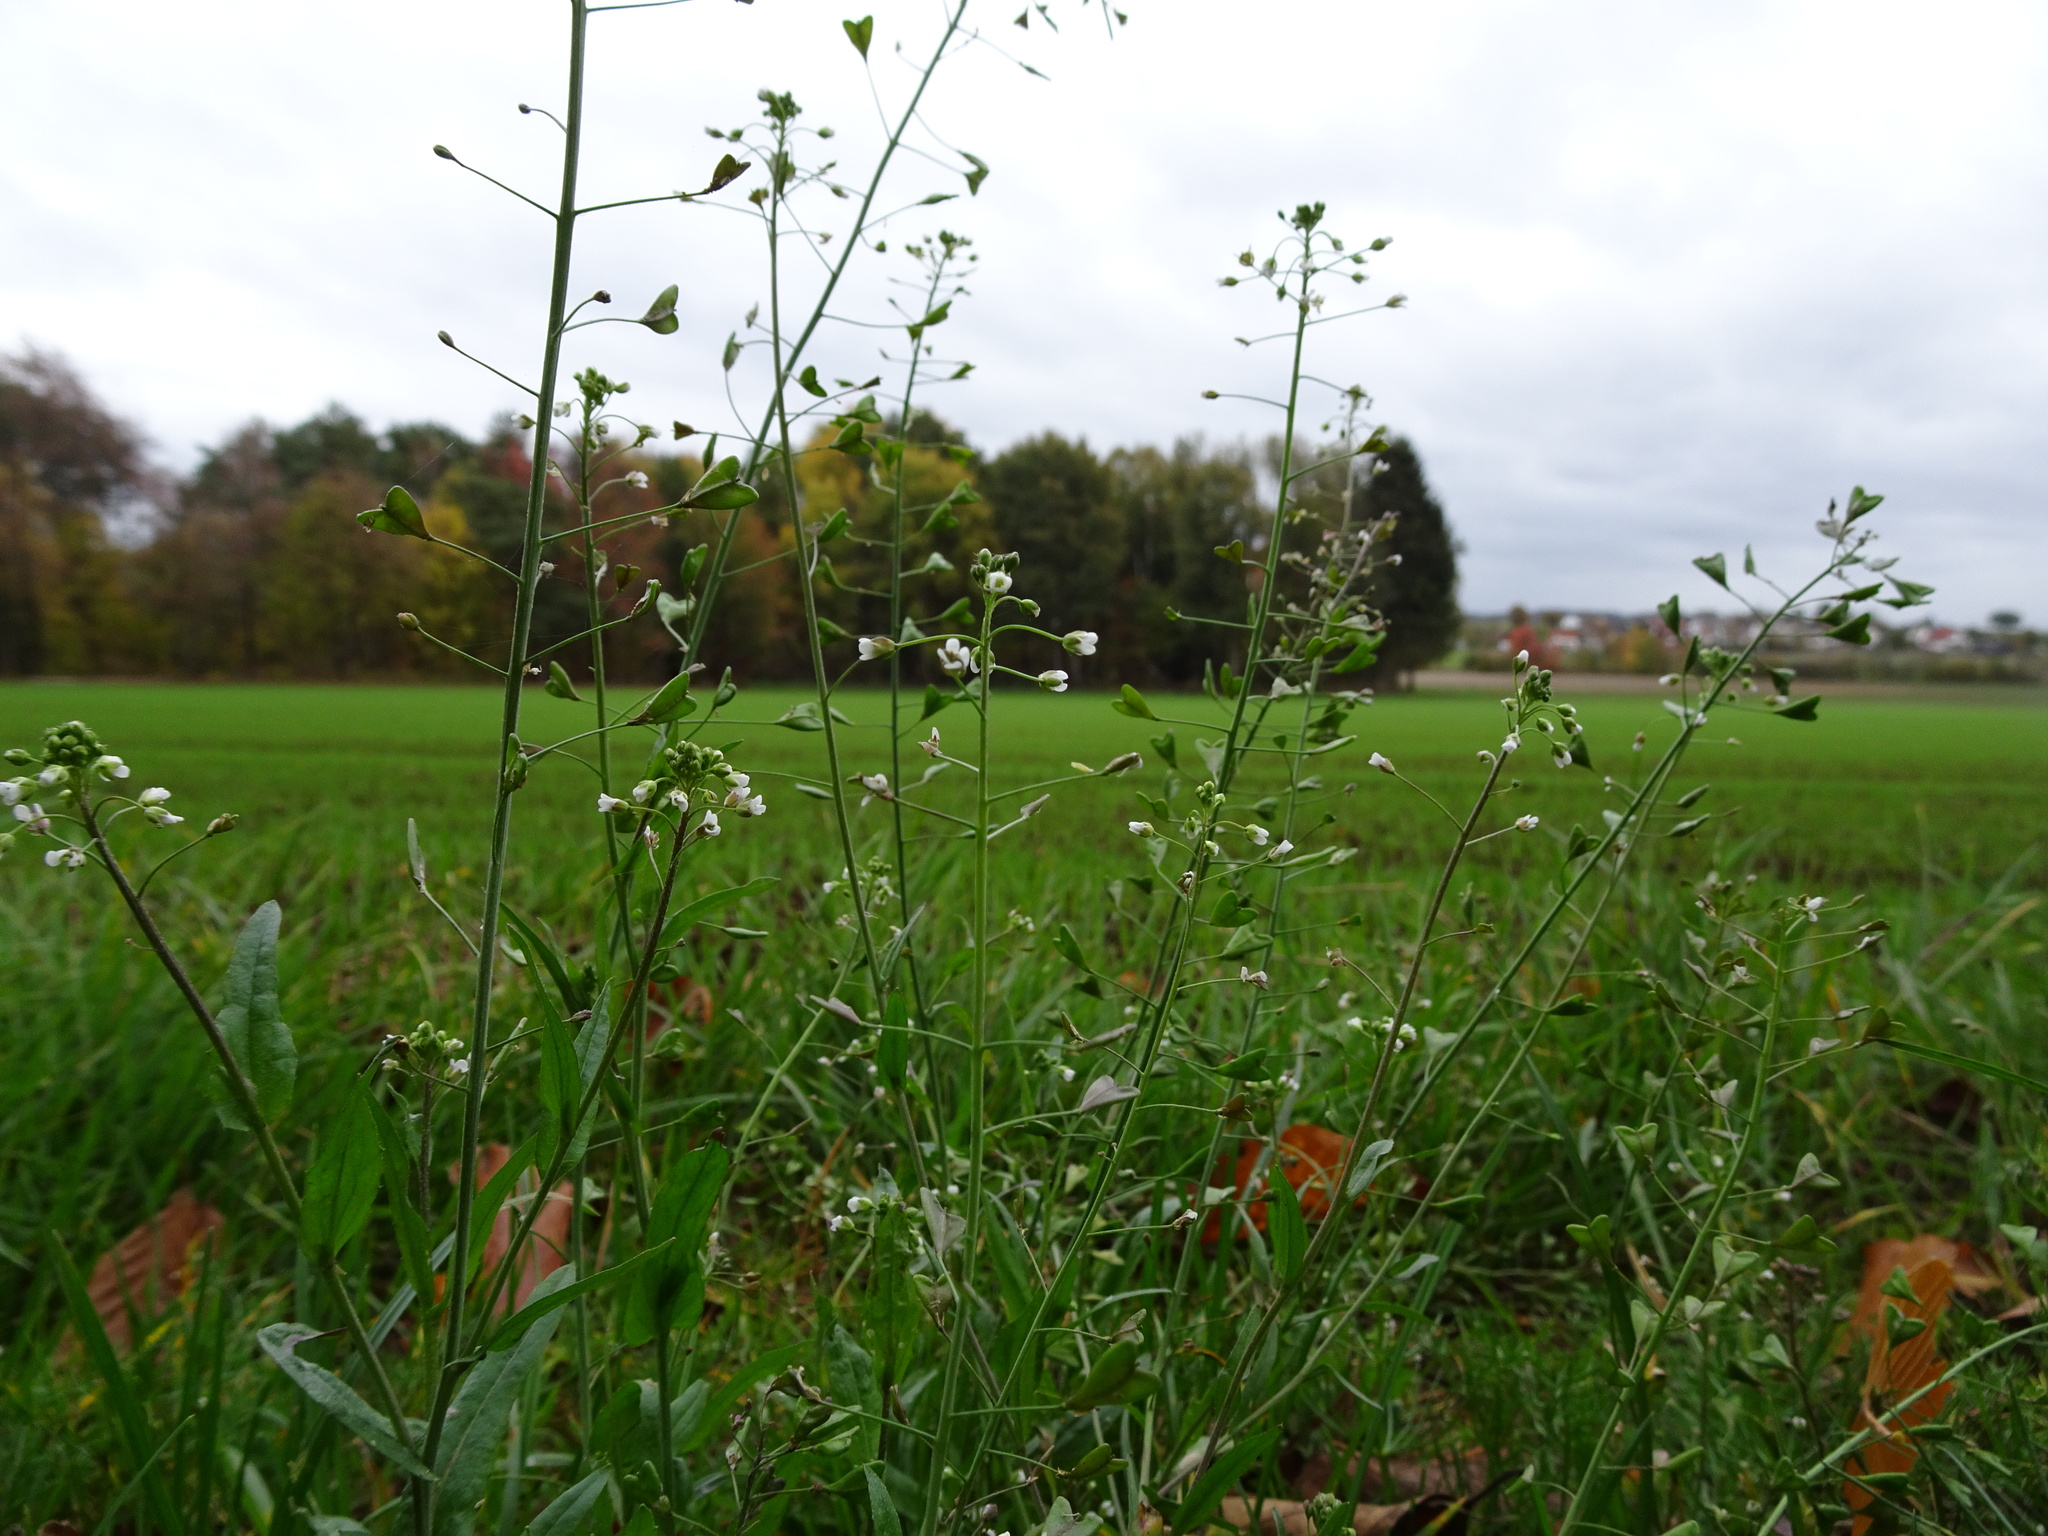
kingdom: Plantae
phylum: Tracheophyta
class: Magnoliopsida
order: Brassicales
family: Brassicaceae
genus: Capsella
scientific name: Capsella bursa-pastoris
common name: Shepherd's purse
